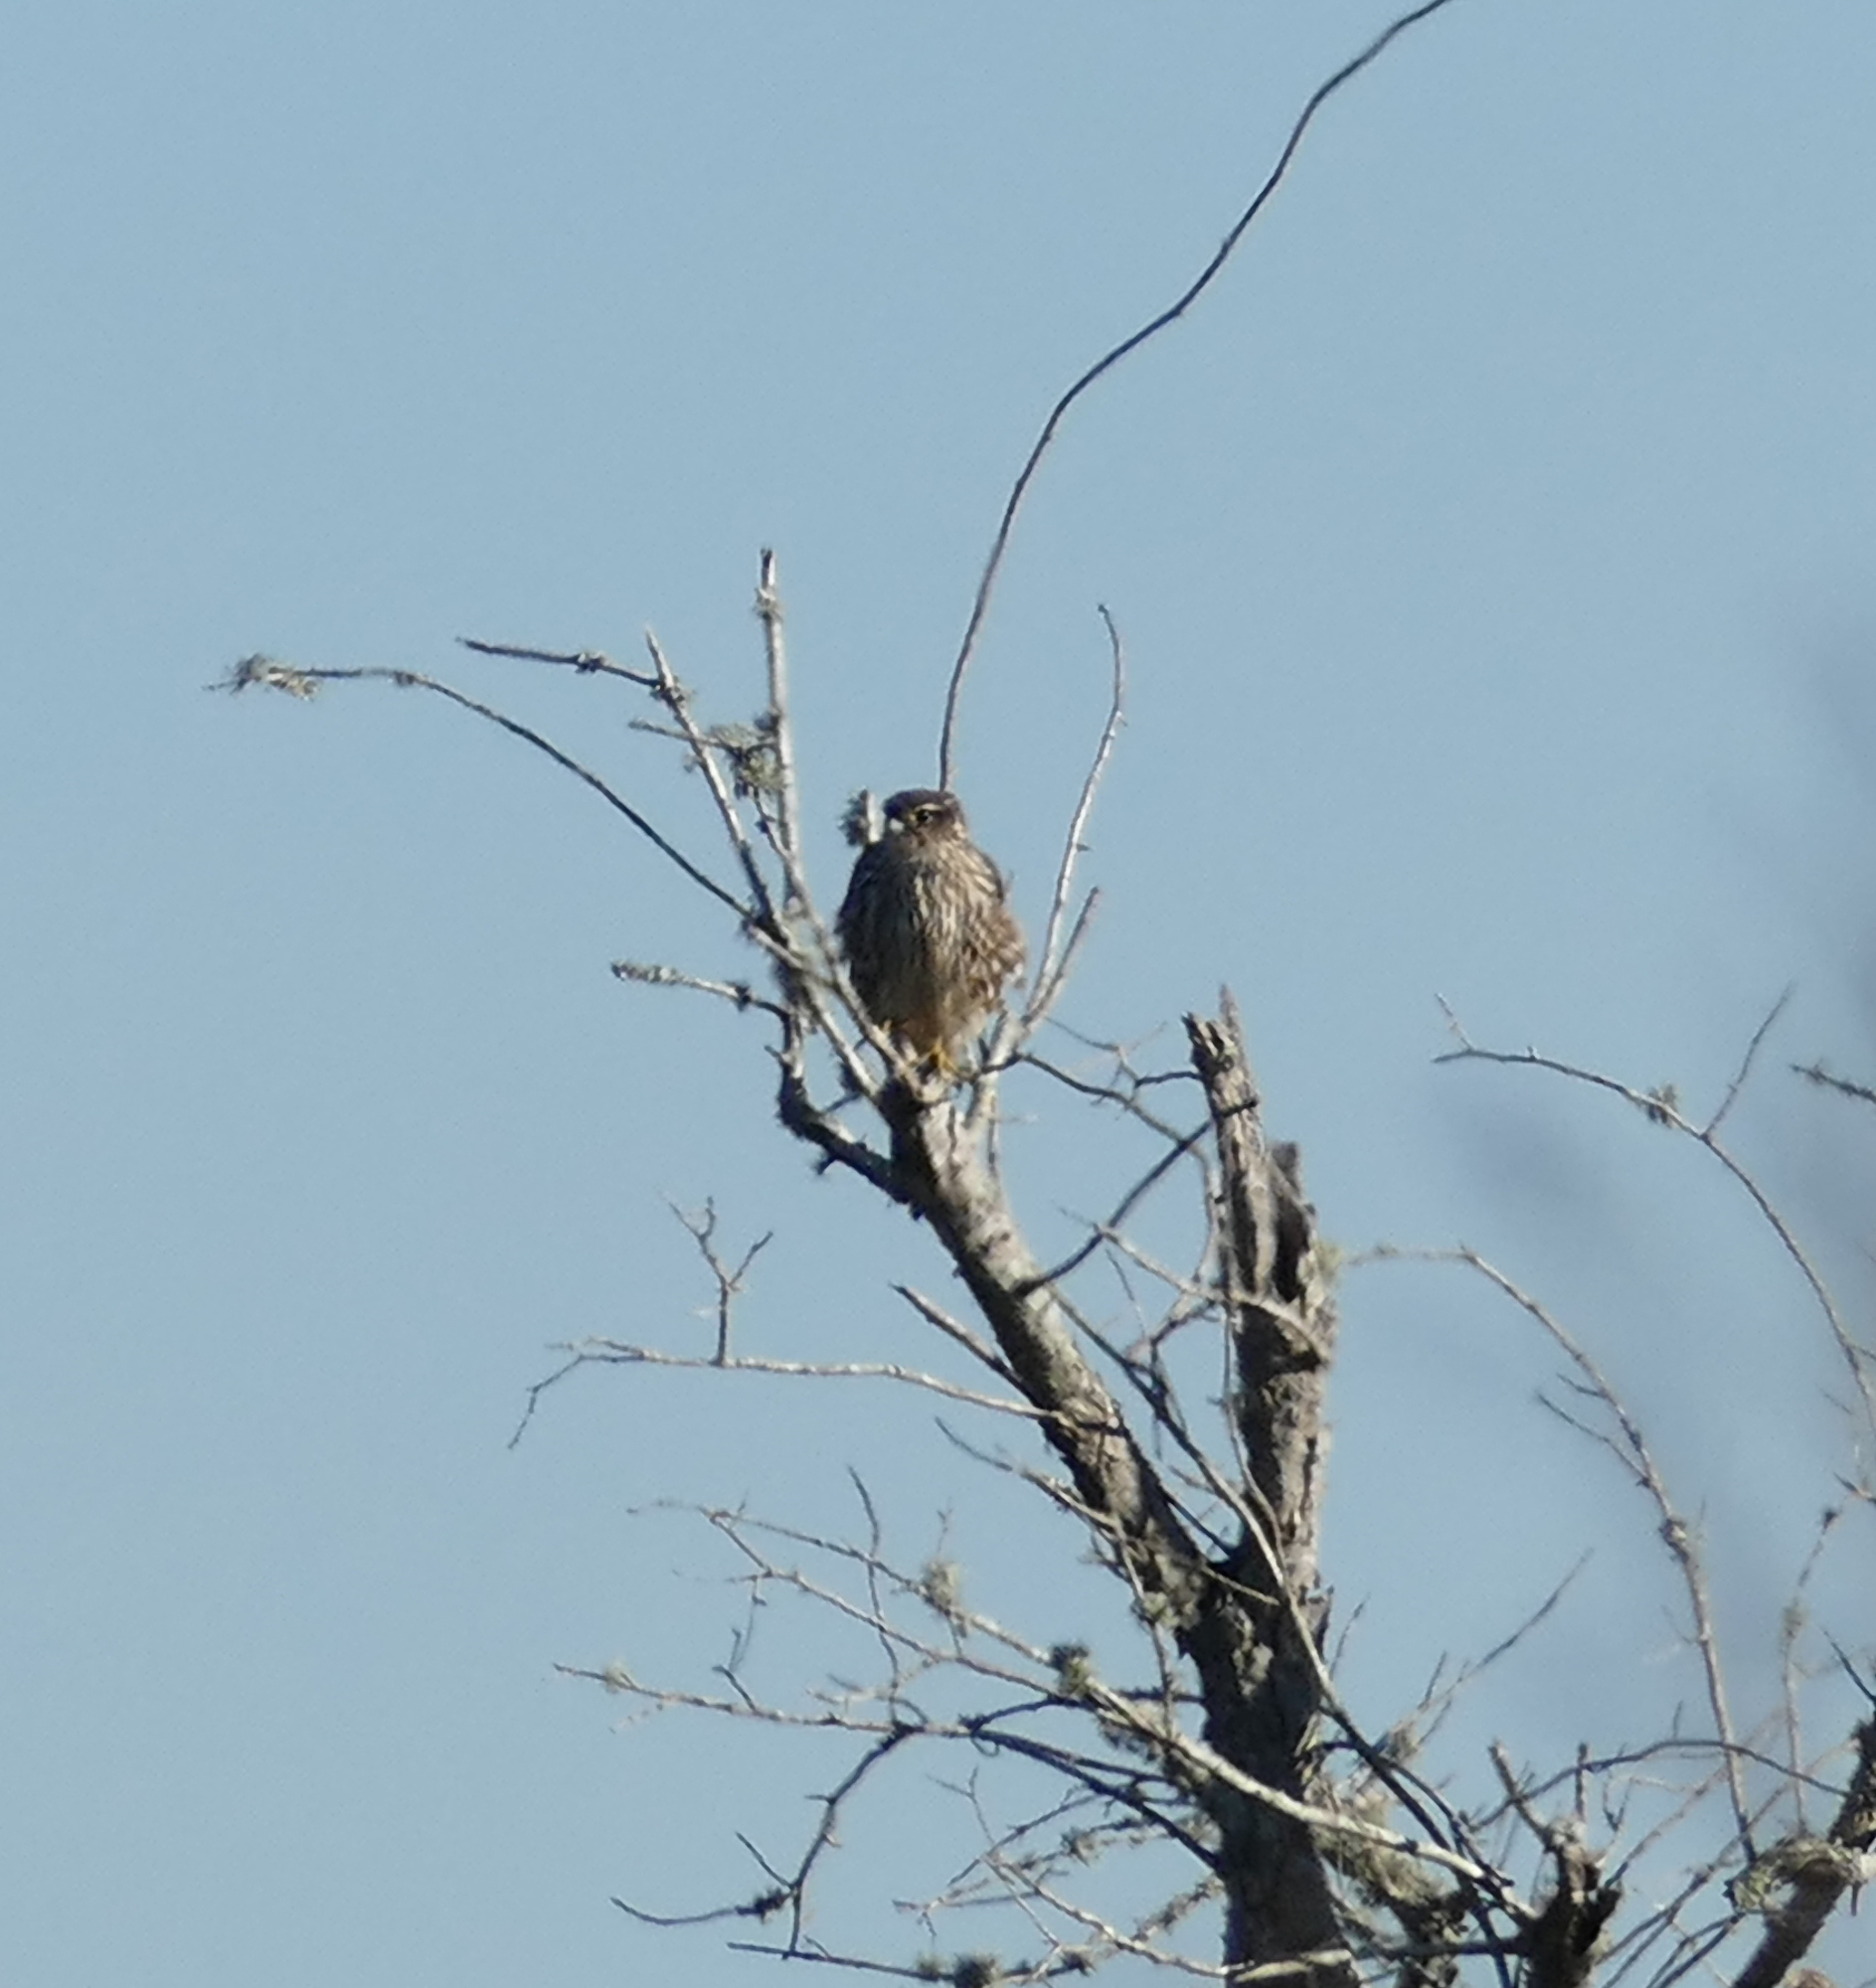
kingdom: Animalia
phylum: Chordata
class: Aves
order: Falconiformes
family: Falconidae
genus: Falco
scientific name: Falco columbarius
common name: Merlin
